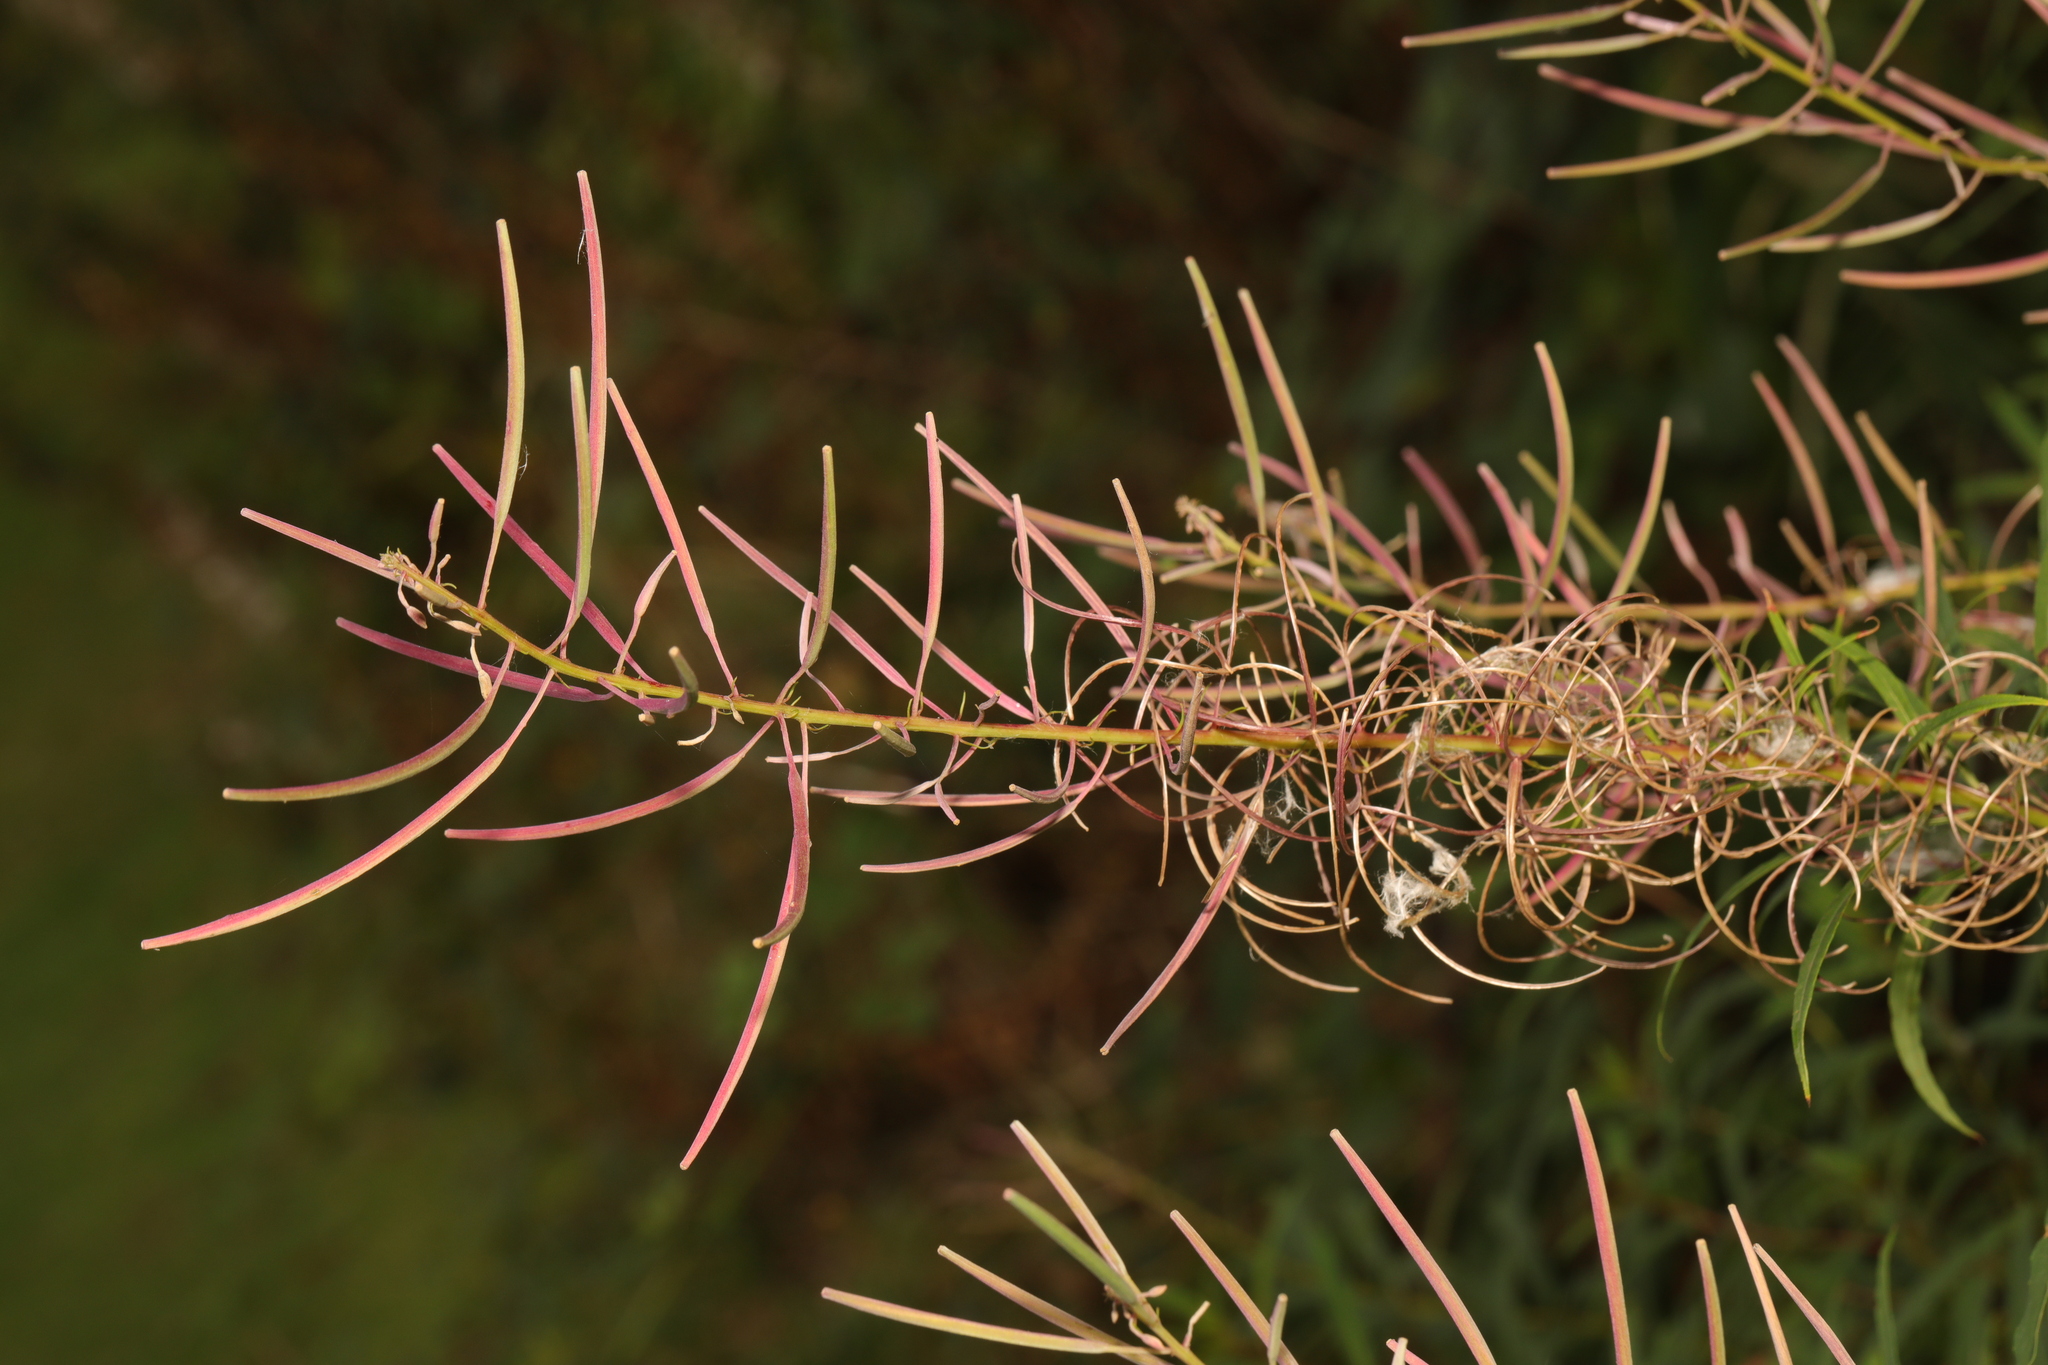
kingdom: Plantae
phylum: Tracheophyta
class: Magnoliopsida
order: Myrtales
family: Onagraceae
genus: Chamaenerion
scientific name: Chamaenerion angustifolium
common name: Fireweed
